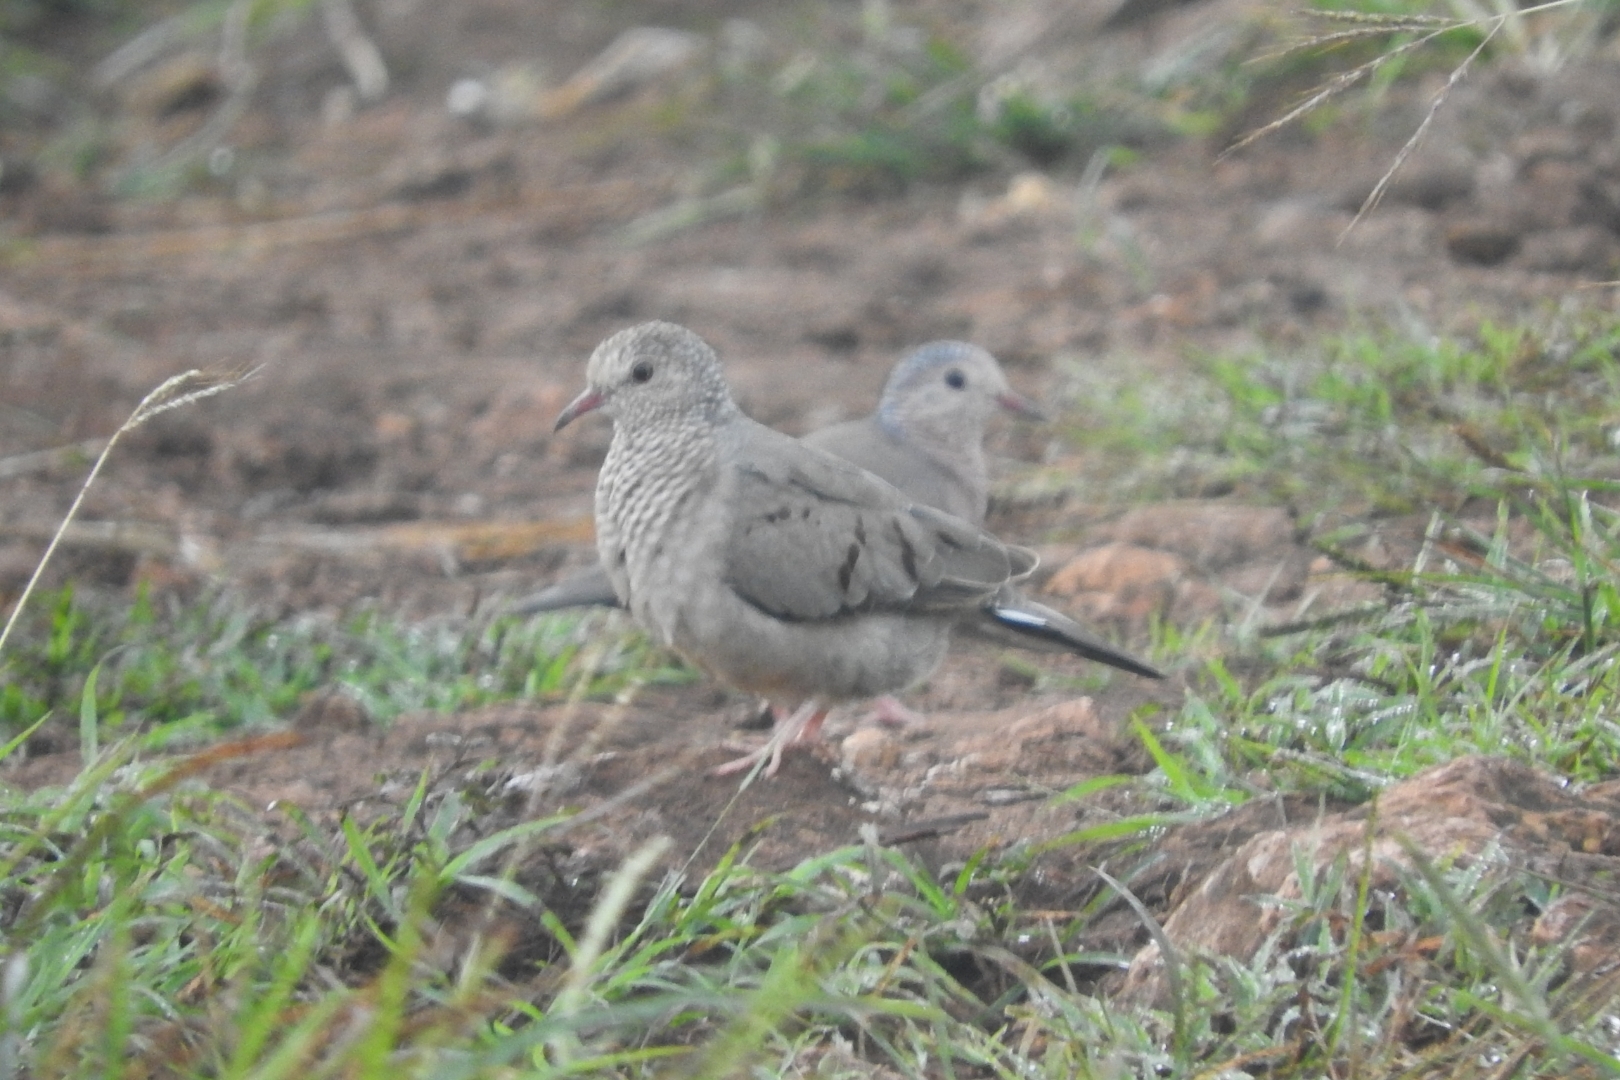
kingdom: Animalia
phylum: Chordata
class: Aves
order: Columbiformes
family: Columbidae
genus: Columbina
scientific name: Columbina passerina
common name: Common ground-dove
